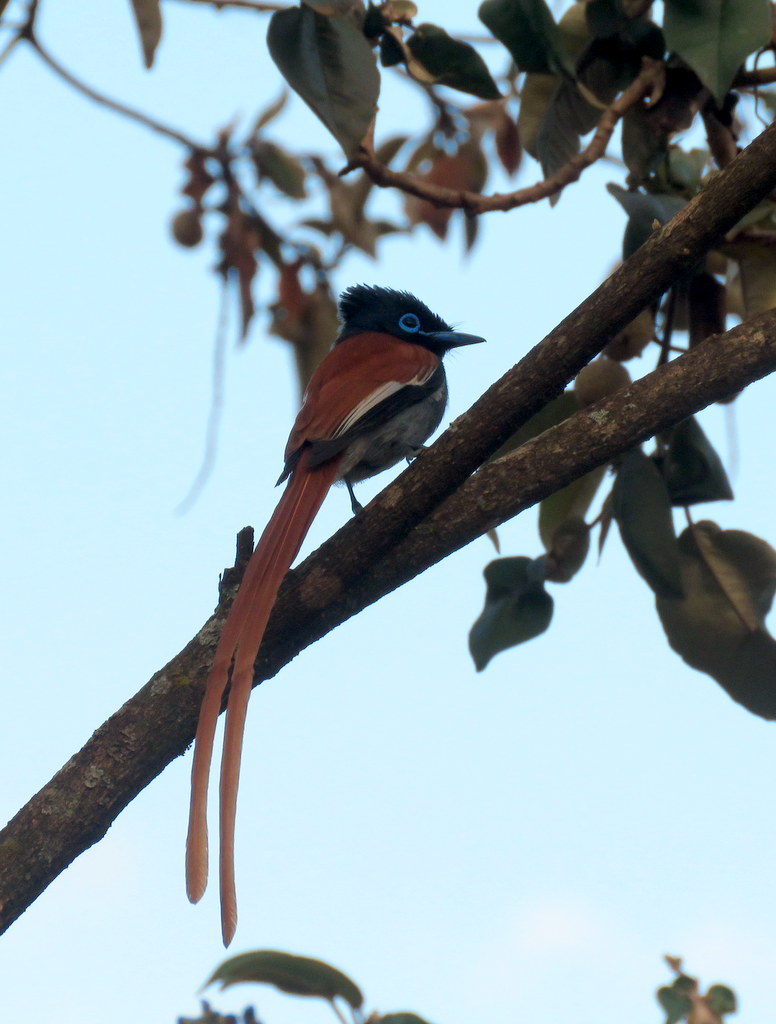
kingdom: Animalia
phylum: Chordata
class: Aves
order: Passeriformes
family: Monarchidae
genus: Terpsiphone
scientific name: Terpsiphone viridis
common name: African paradise flycatcher
